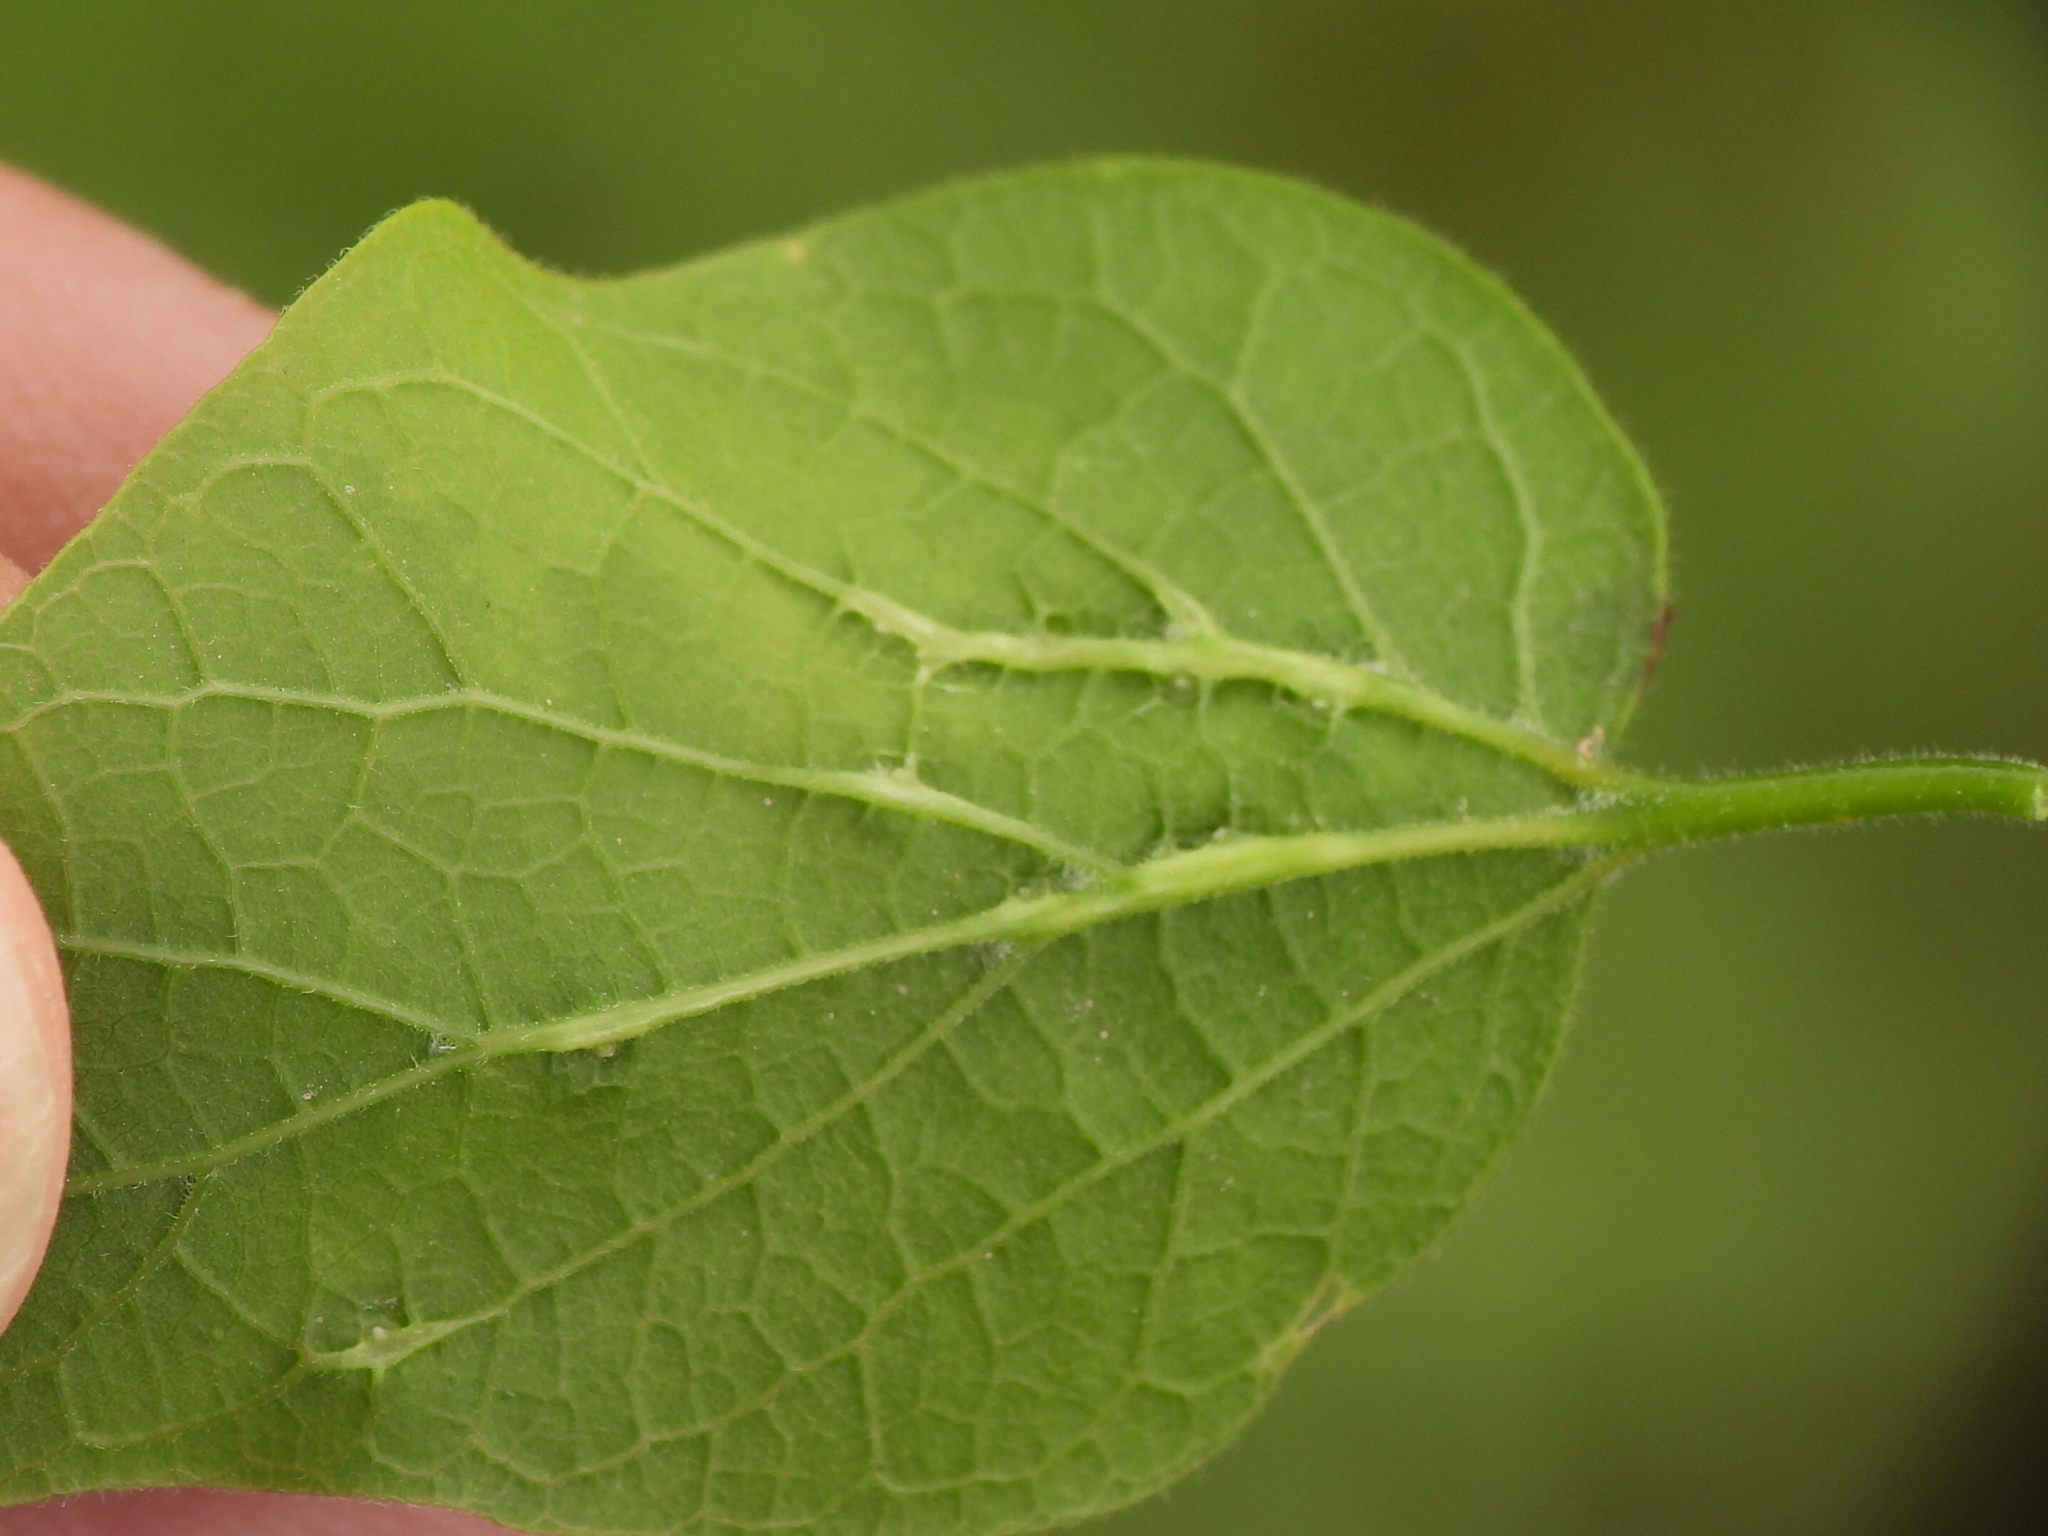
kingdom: Animalia
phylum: Arthropoda
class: Insecta
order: Diptera
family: Cecidomyiidae
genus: Celticecis
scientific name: Celticecis
